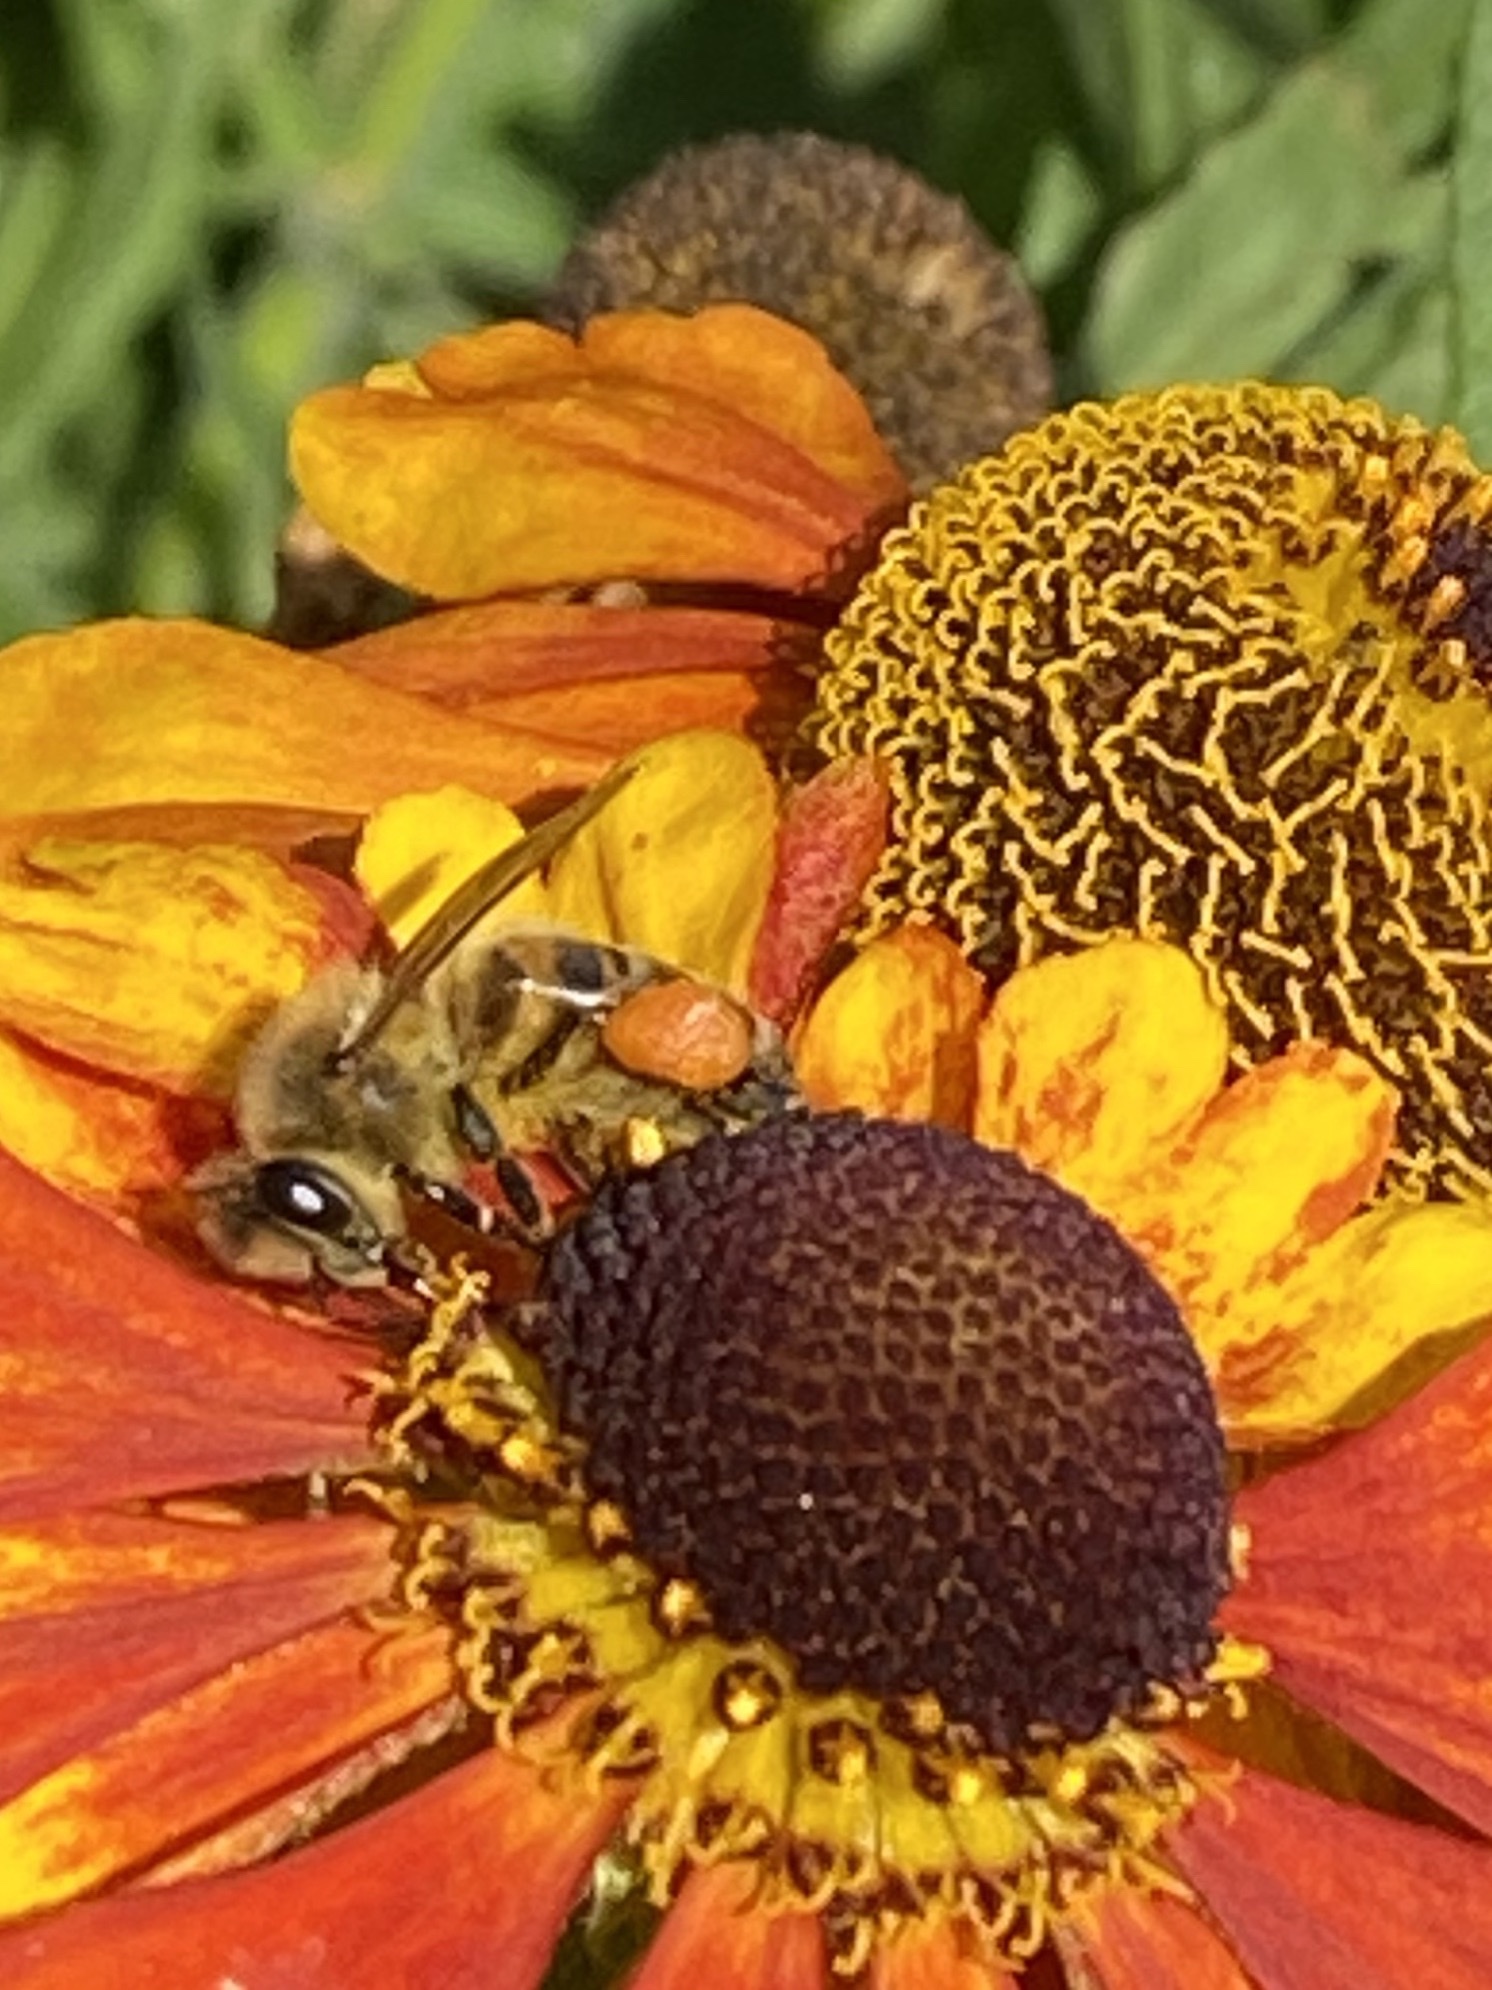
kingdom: Animalia
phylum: Arthropoda
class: Insecta
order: Hymenoptera
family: Apidae
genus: Apis
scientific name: Apis mellifera
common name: Honey bee
